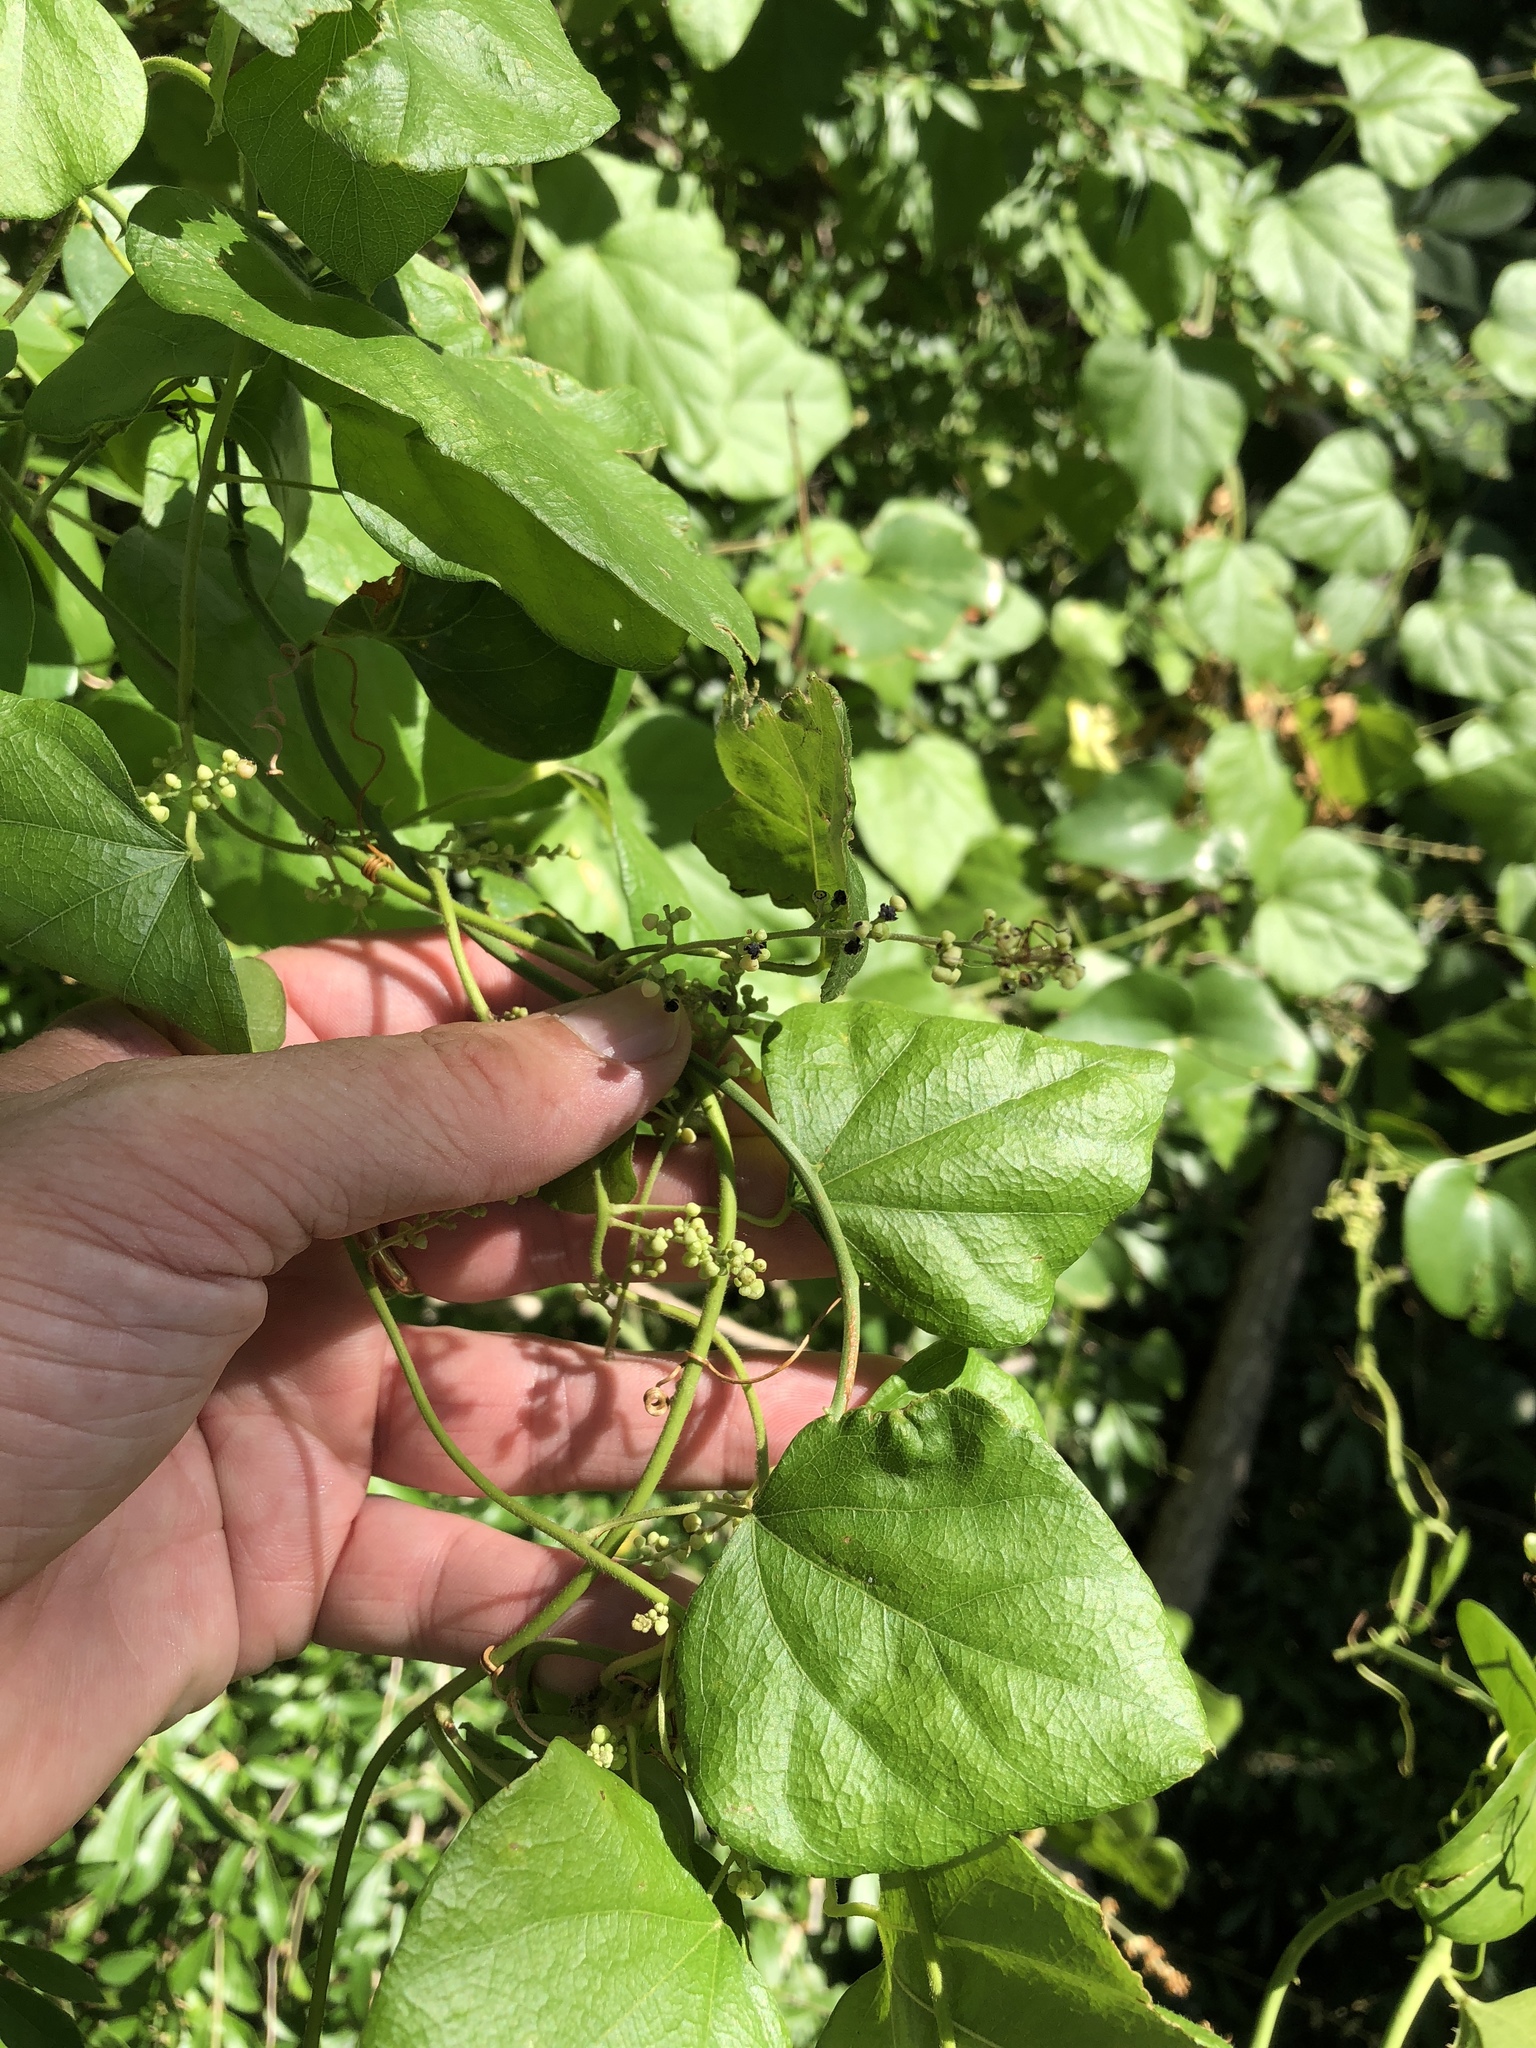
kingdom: Plantae
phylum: Tracheophyta
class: Magnoliopsida
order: Ranunculales
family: Menispermaceae
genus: Cocculus
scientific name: Cocculus carolinus
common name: Carolina moonseed
